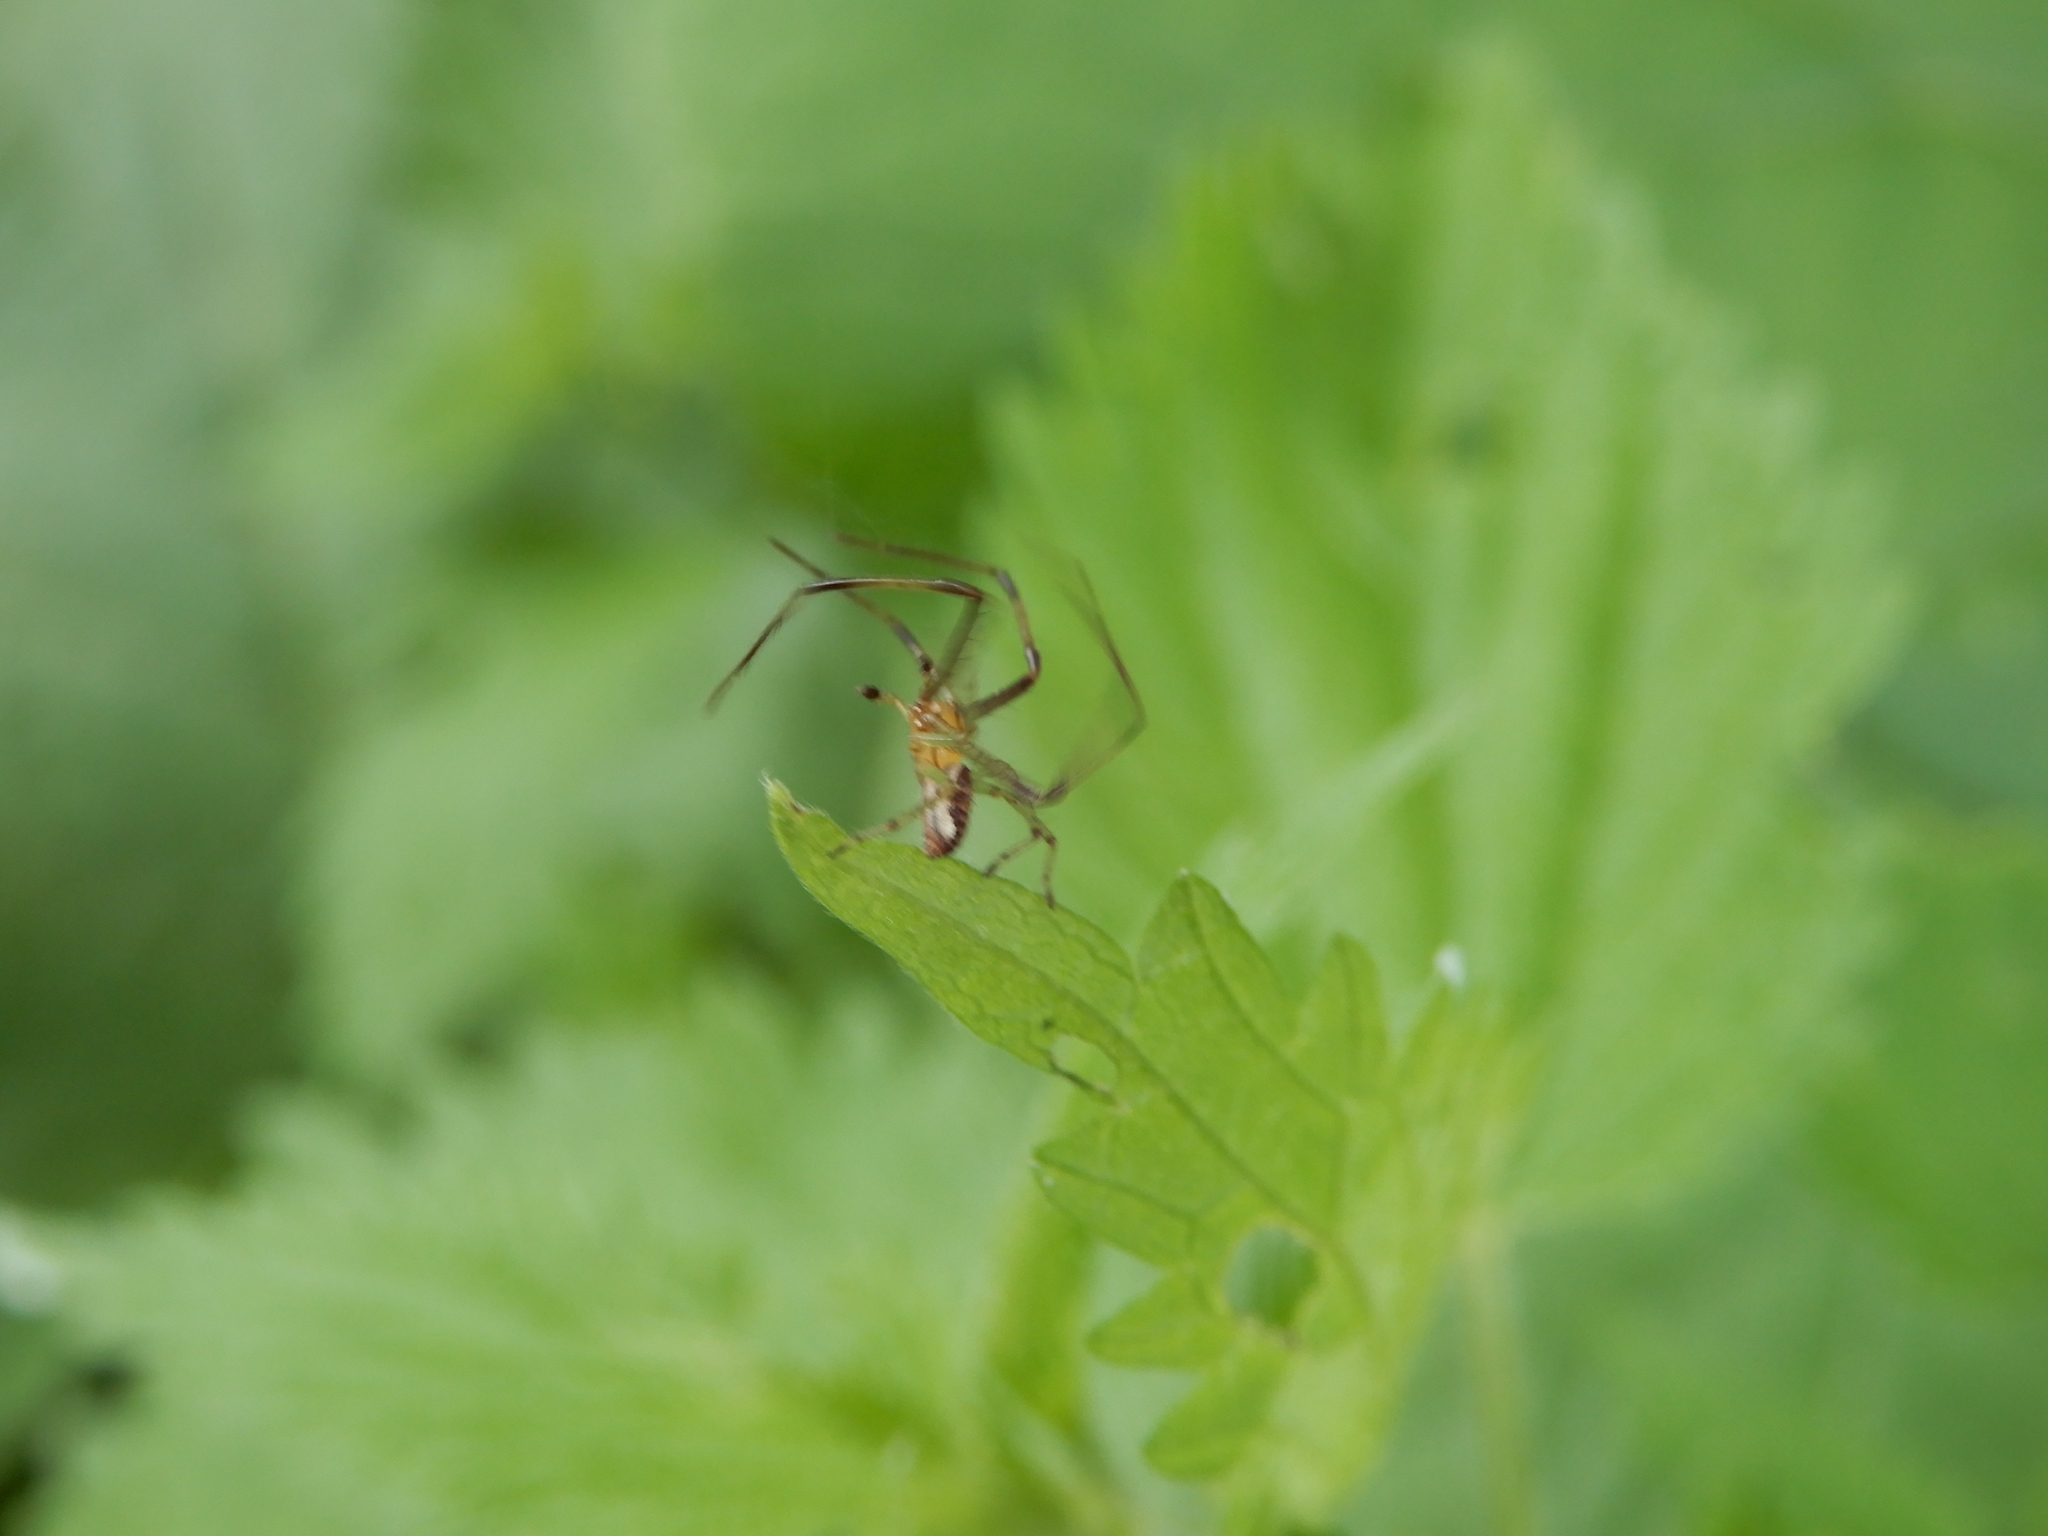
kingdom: Animalia
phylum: Arthropoda
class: Arachnida
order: Araneae
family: Thomisidae
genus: Diaea
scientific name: Diaea dorsata
